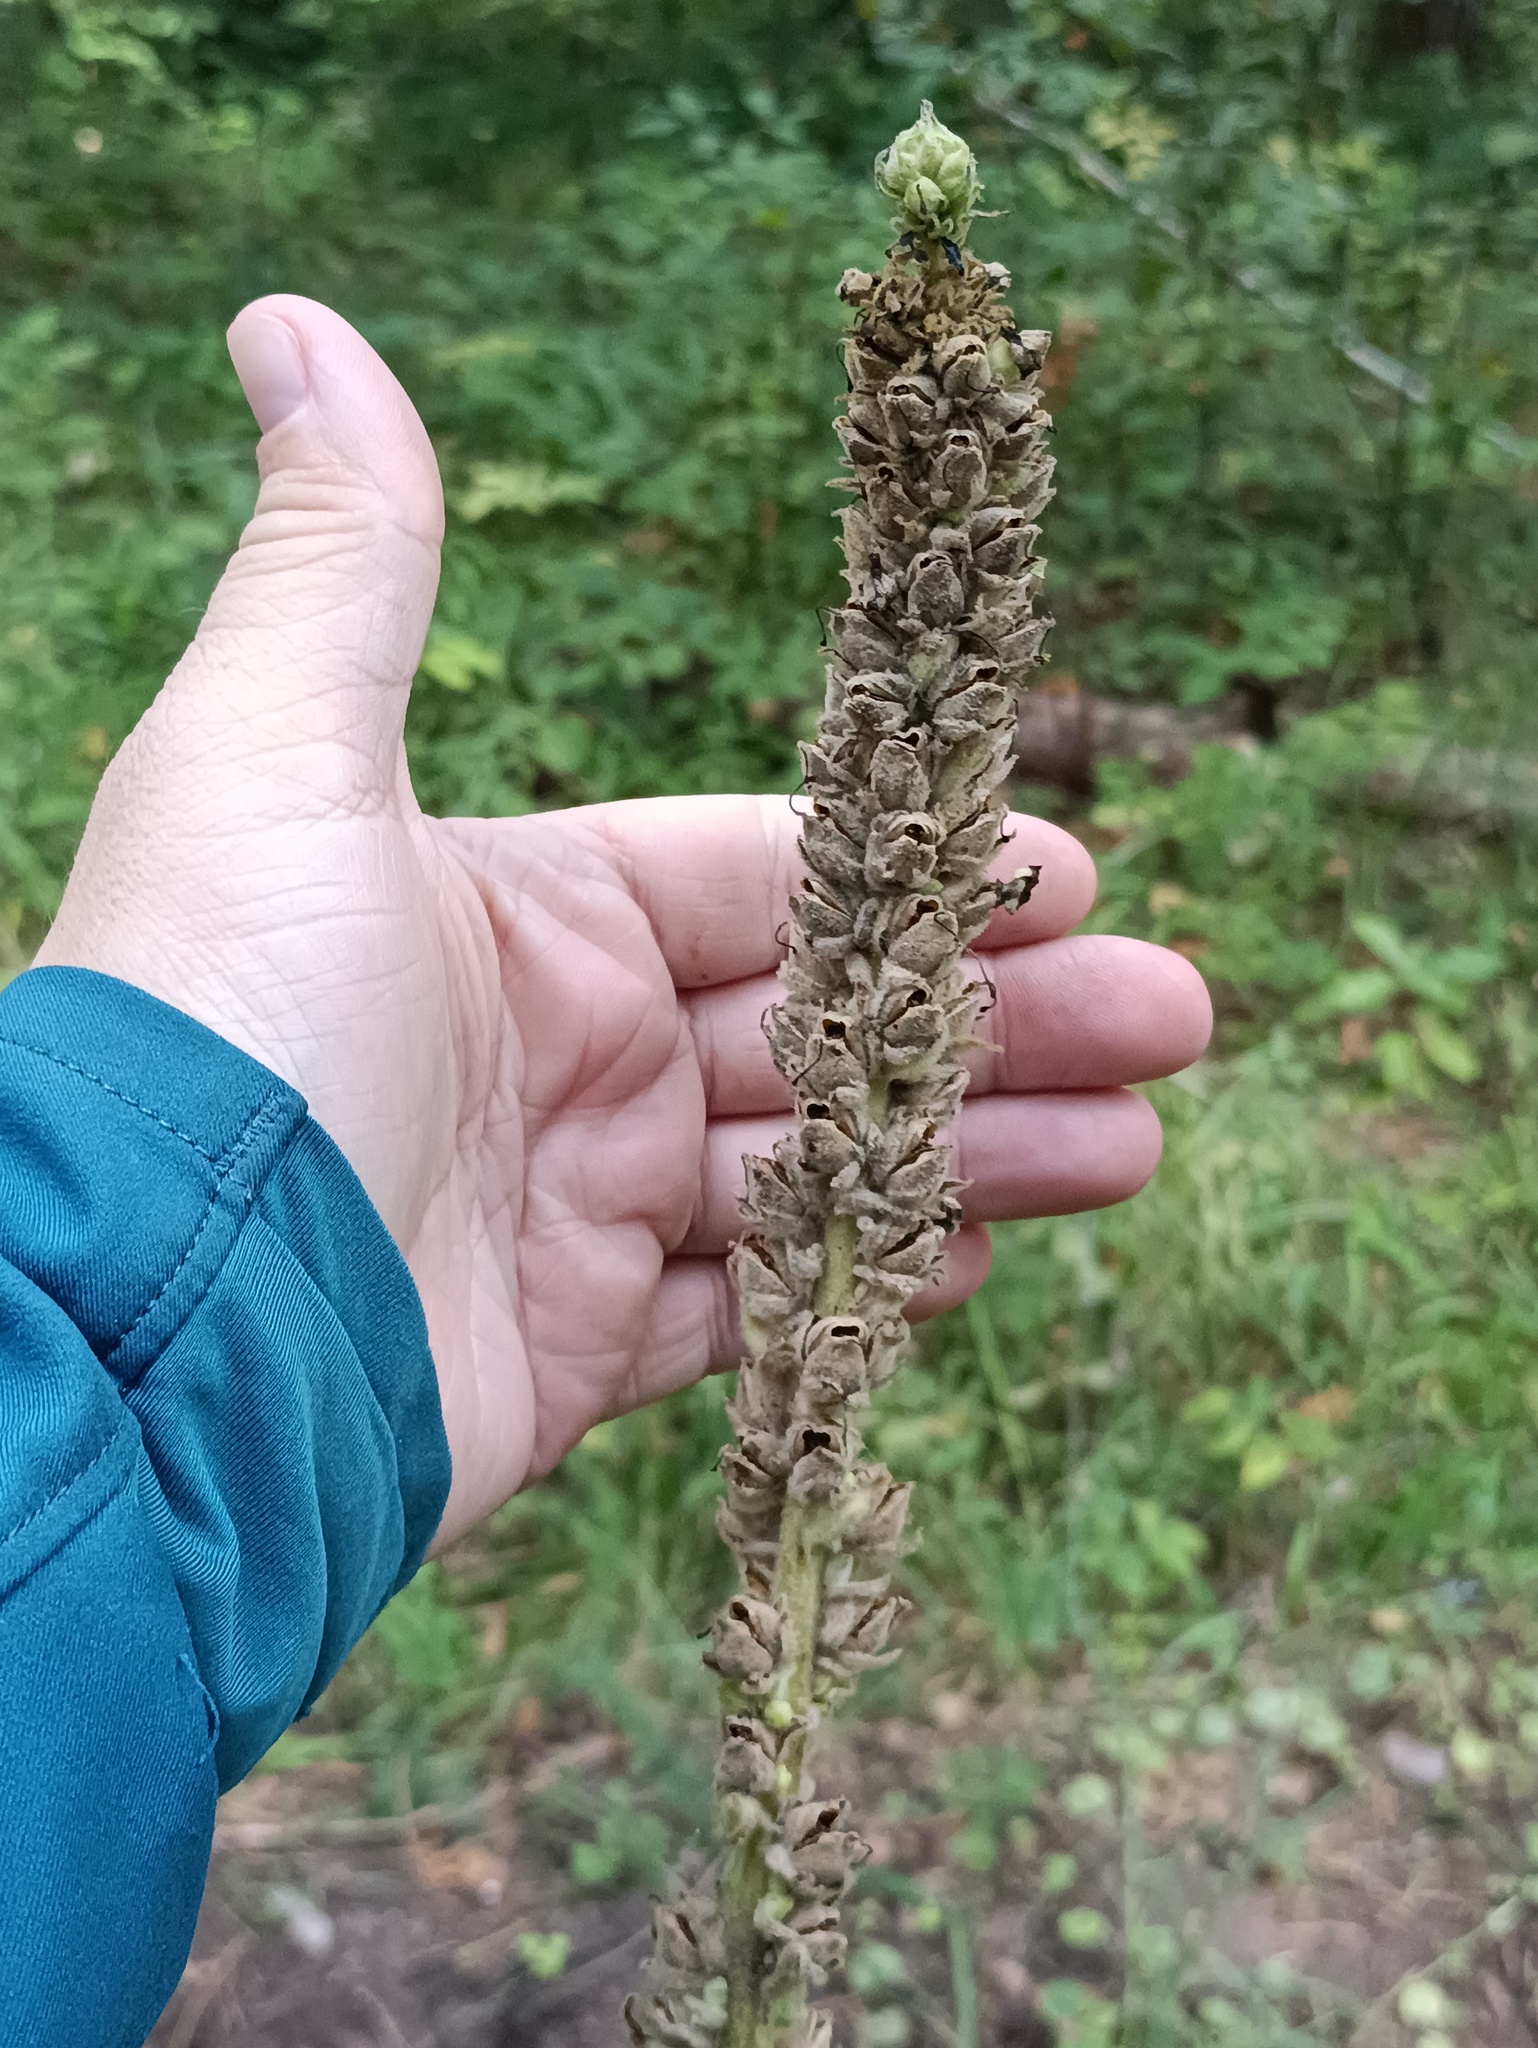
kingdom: Plantae
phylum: Tracheophyta
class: Magnoliopsida
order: Lamiales
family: Scrophulariaceae
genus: Verbascum
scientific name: Verbascum thapsus
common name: Common mullein
